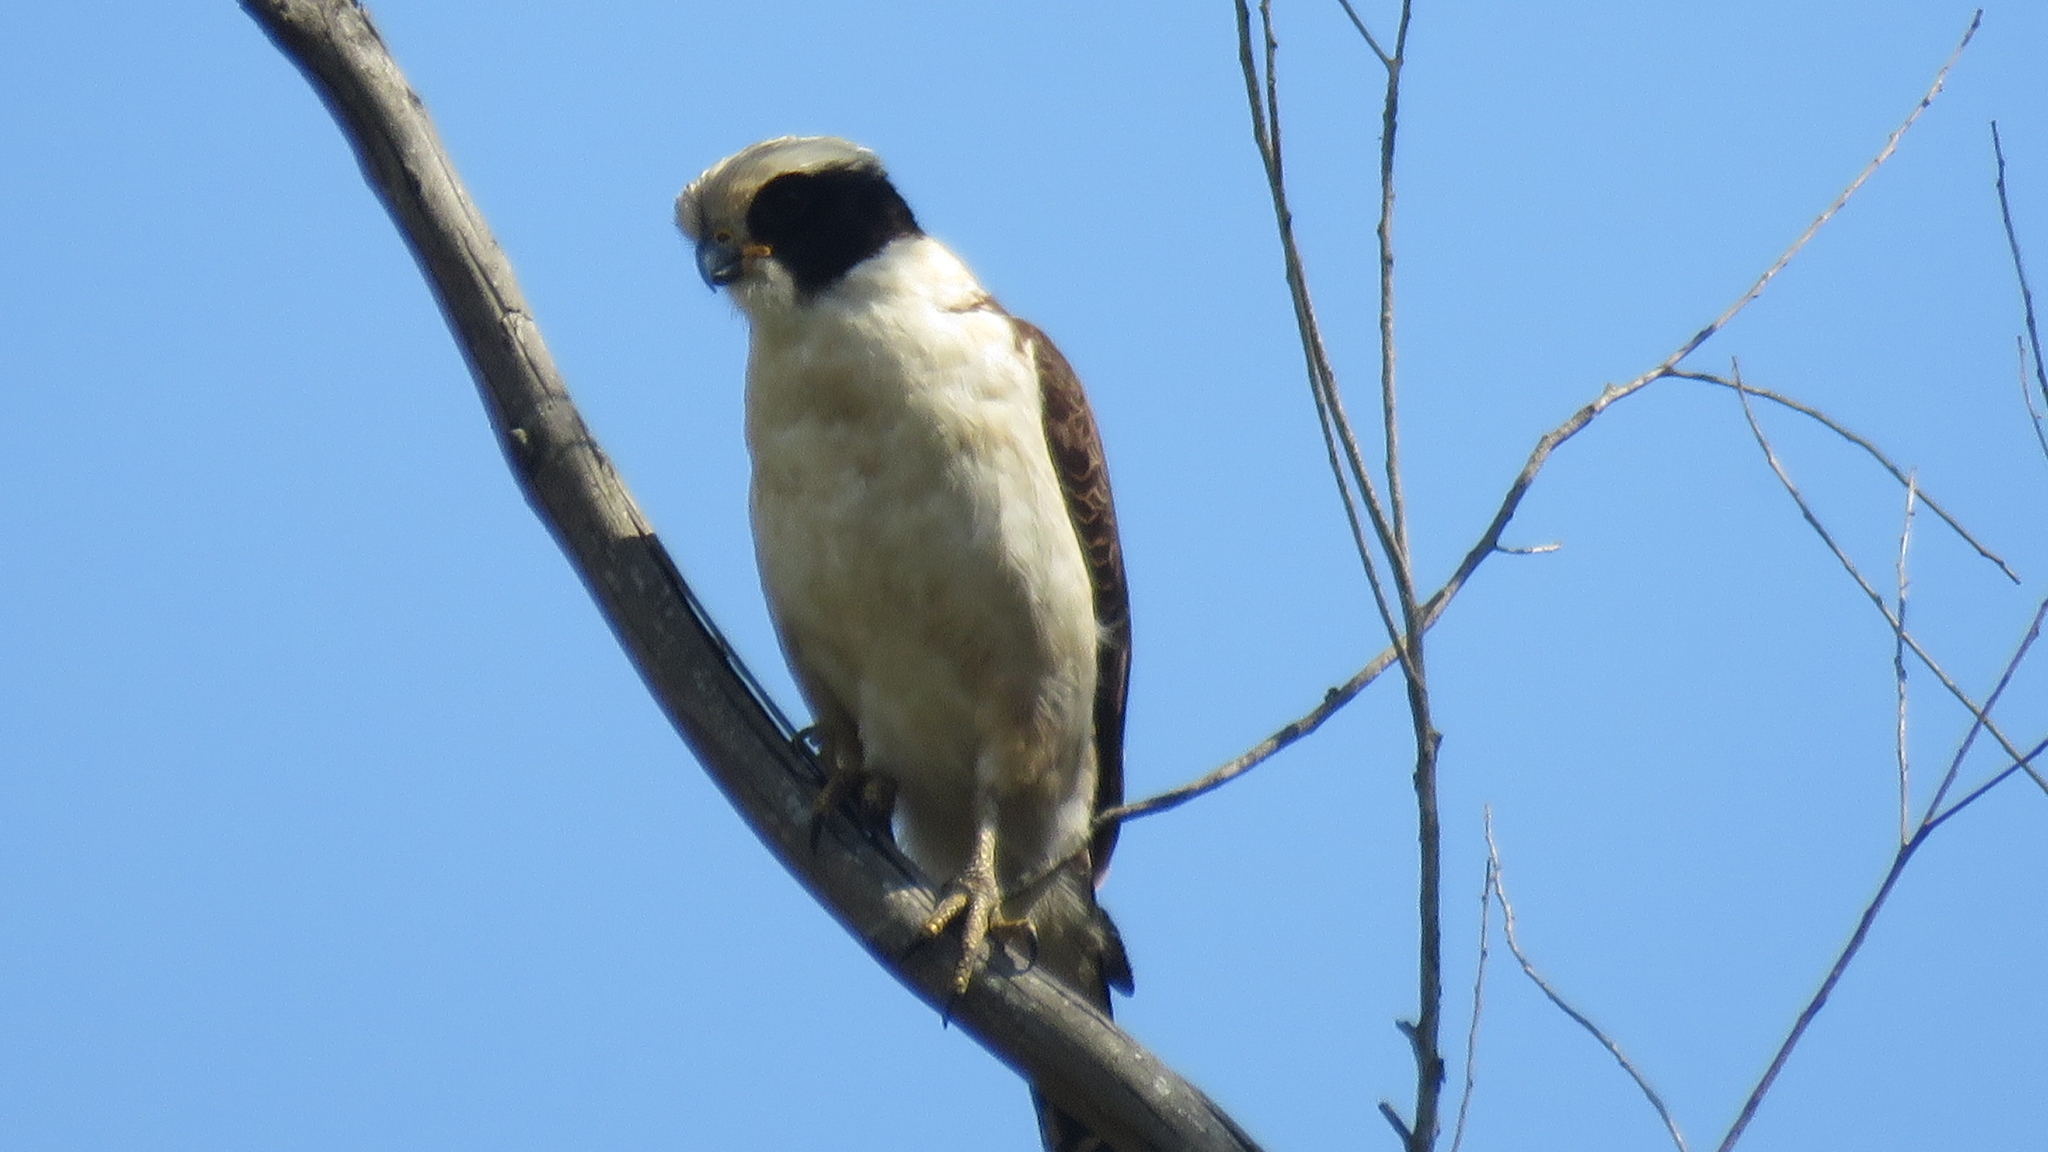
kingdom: Animalia
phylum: Chordata
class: Aves
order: Falconiformes
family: Falconidae
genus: Herpetotheres
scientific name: Herpetotheres cachinnans
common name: Laughing falcon
